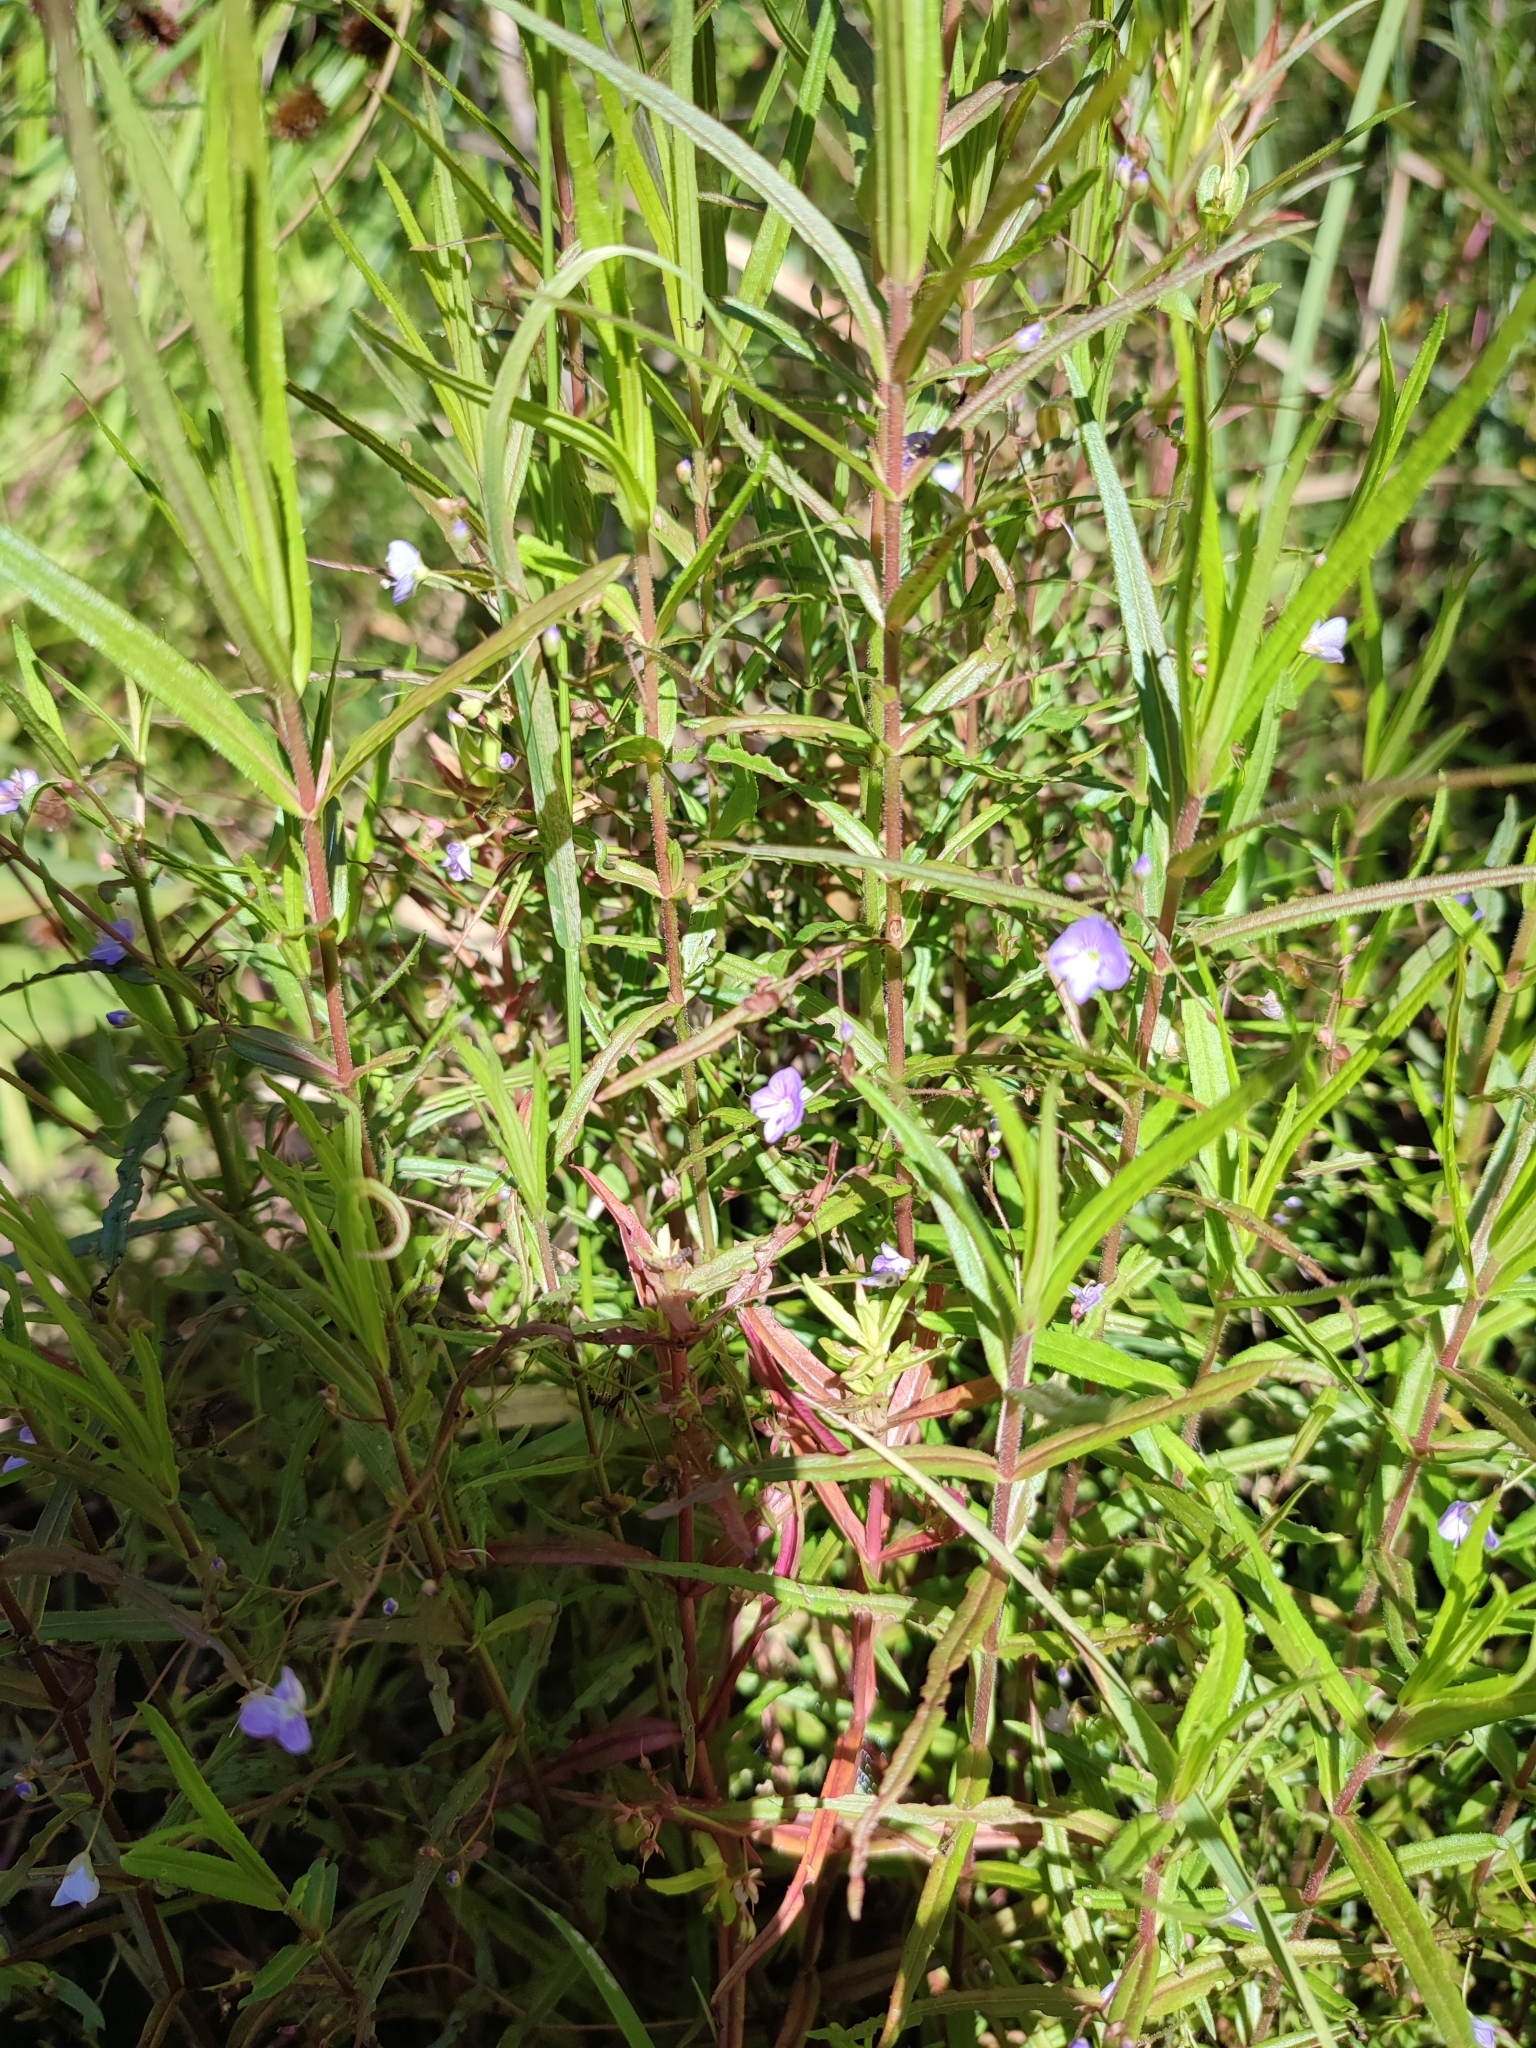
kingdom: Plantae
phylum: Tracheophyta
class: Magnoliopsida
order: Lamiales
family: Plantaginaceae
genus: Veronica
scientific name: Veronica scutellata
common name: Marsh speedwell
